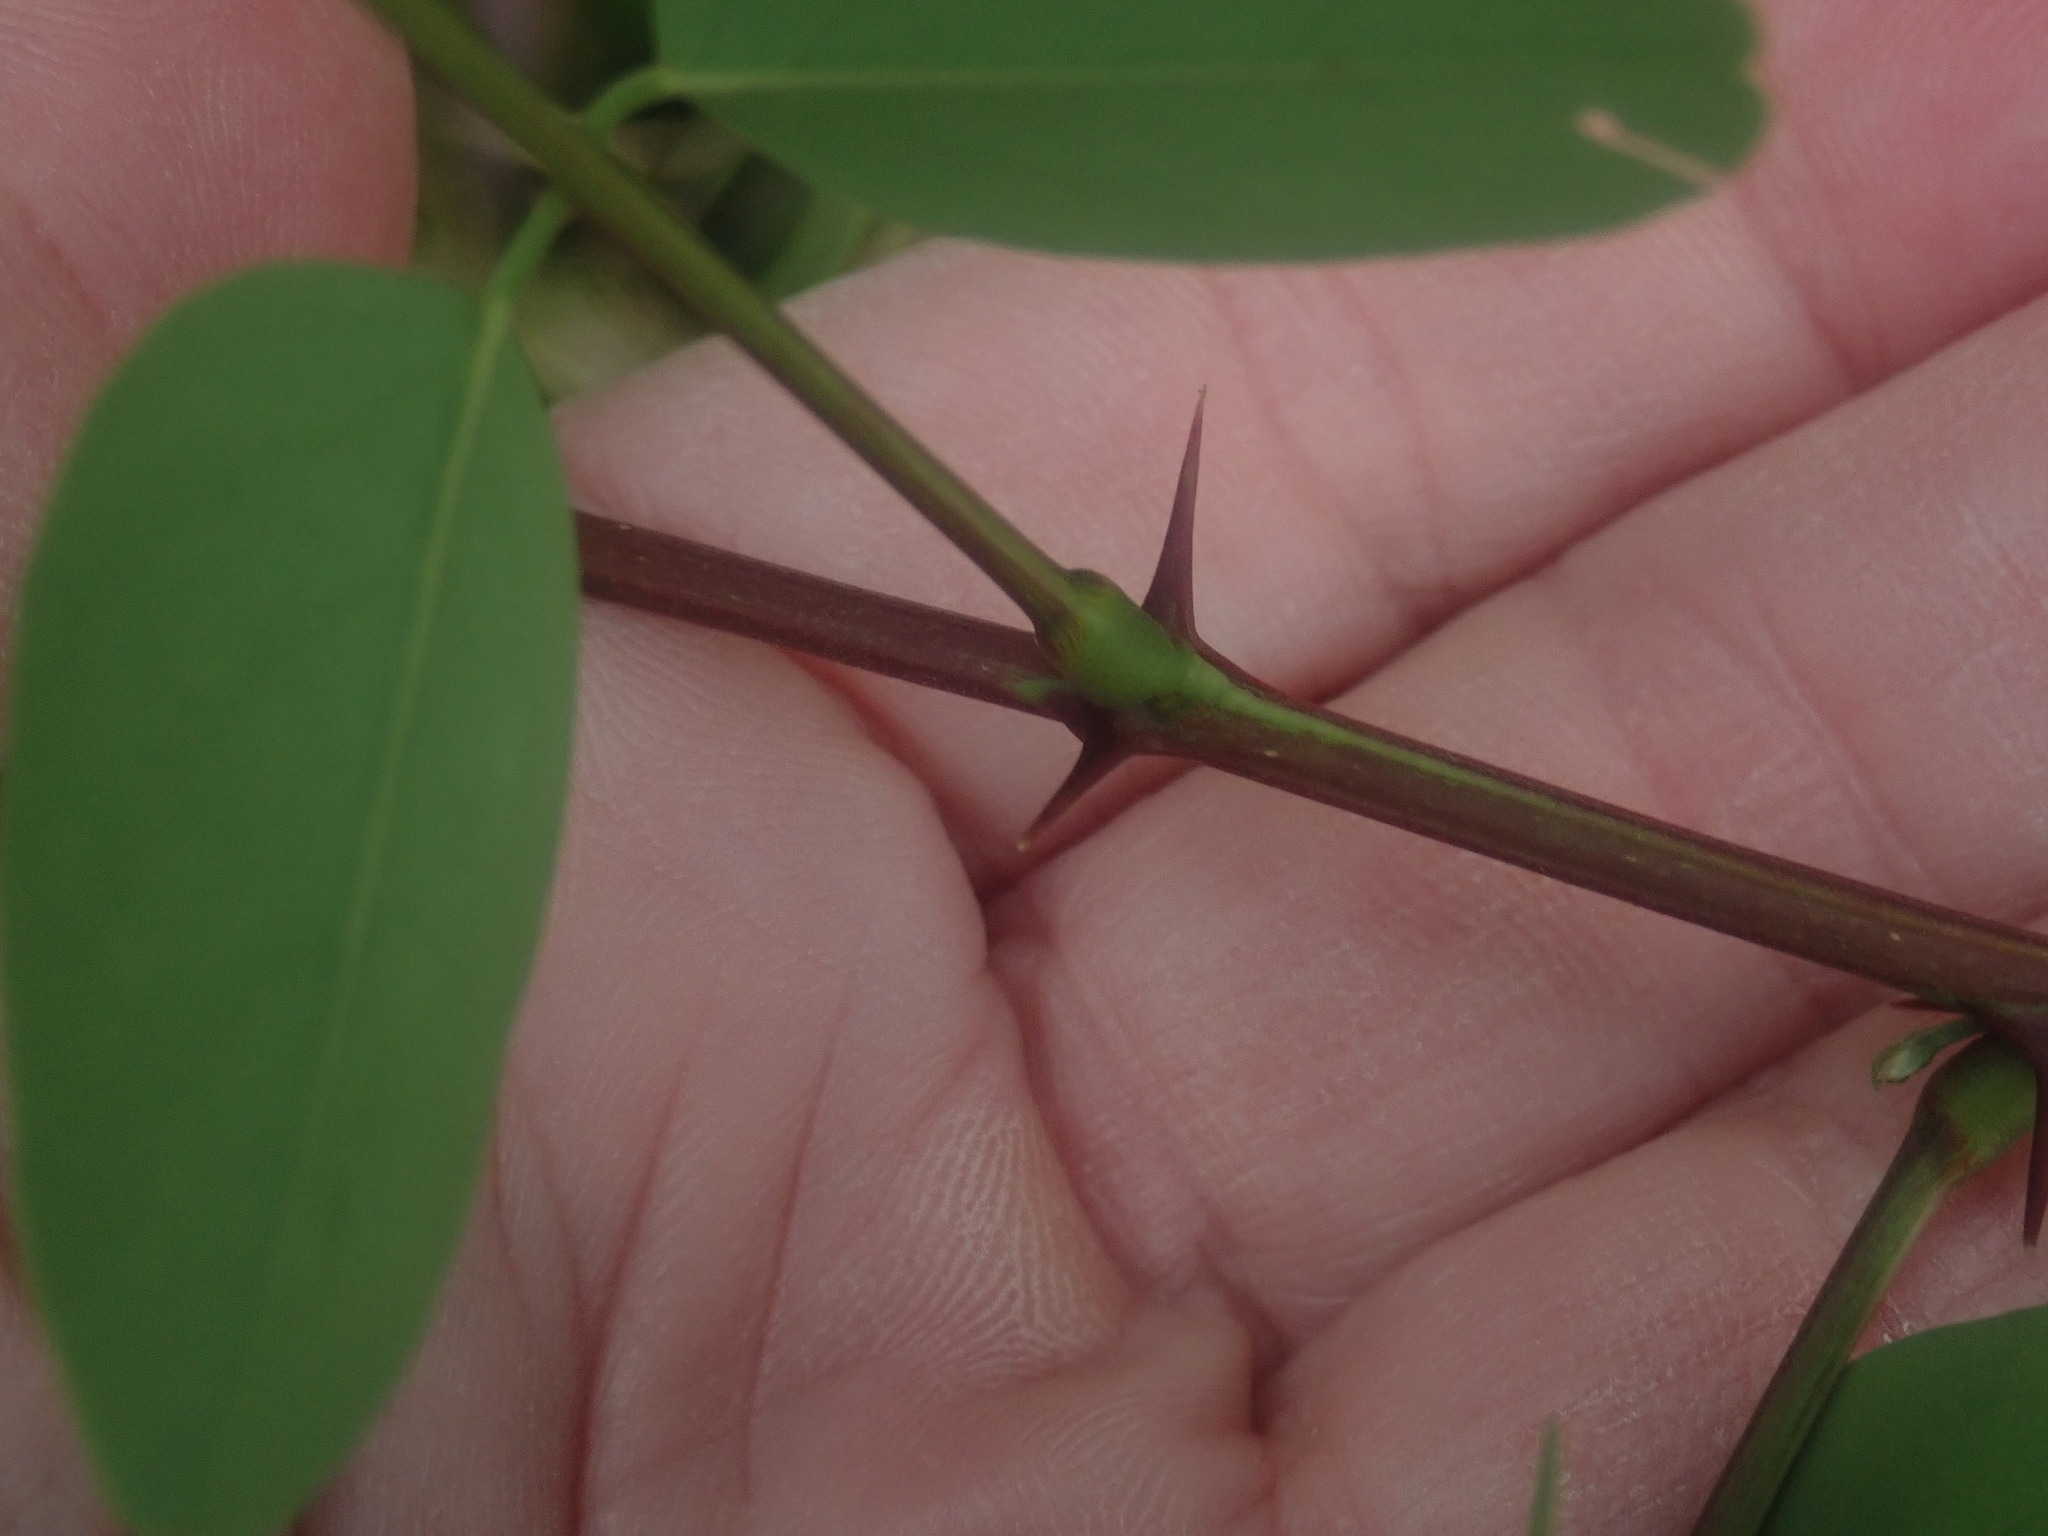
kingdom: Plantae
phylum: Tracheophyta
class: Magnoliopsida
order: Fabales
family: Fabaceae
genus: Robinia
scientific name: Robinia pseudoacacia
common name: Black locust
